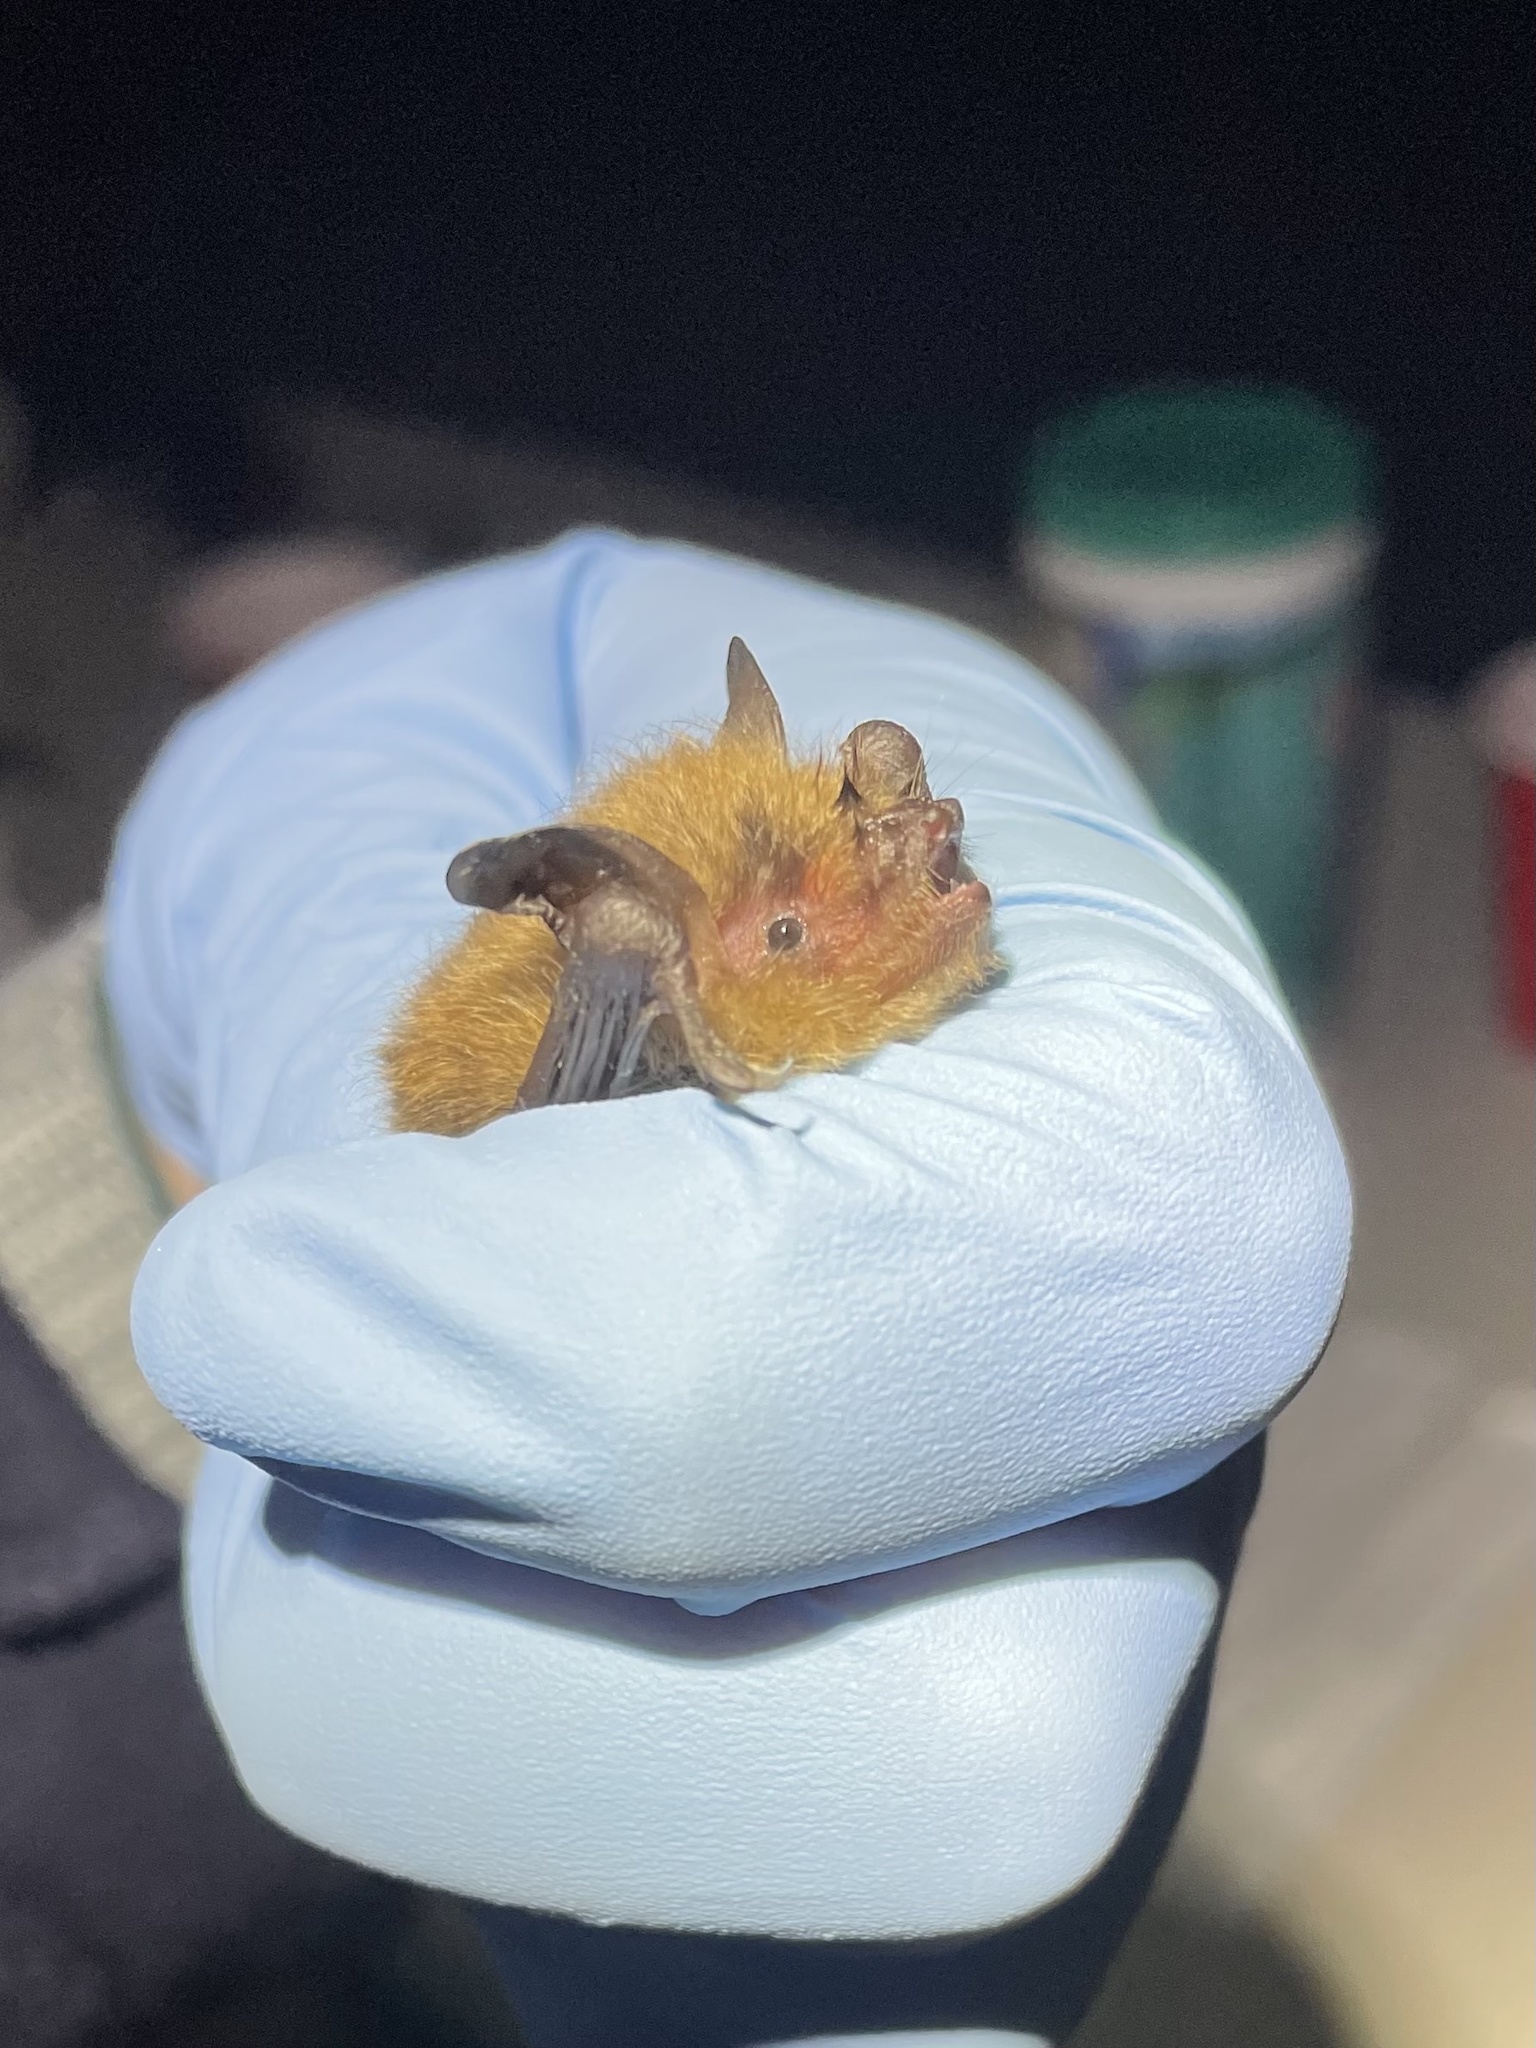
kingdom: Animalia
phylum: Chordata
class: Mammalia
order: Chiroptera
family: Vespertilionidae
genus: Myotis
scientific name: Myotis yumanensis
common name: Yuma myotis
